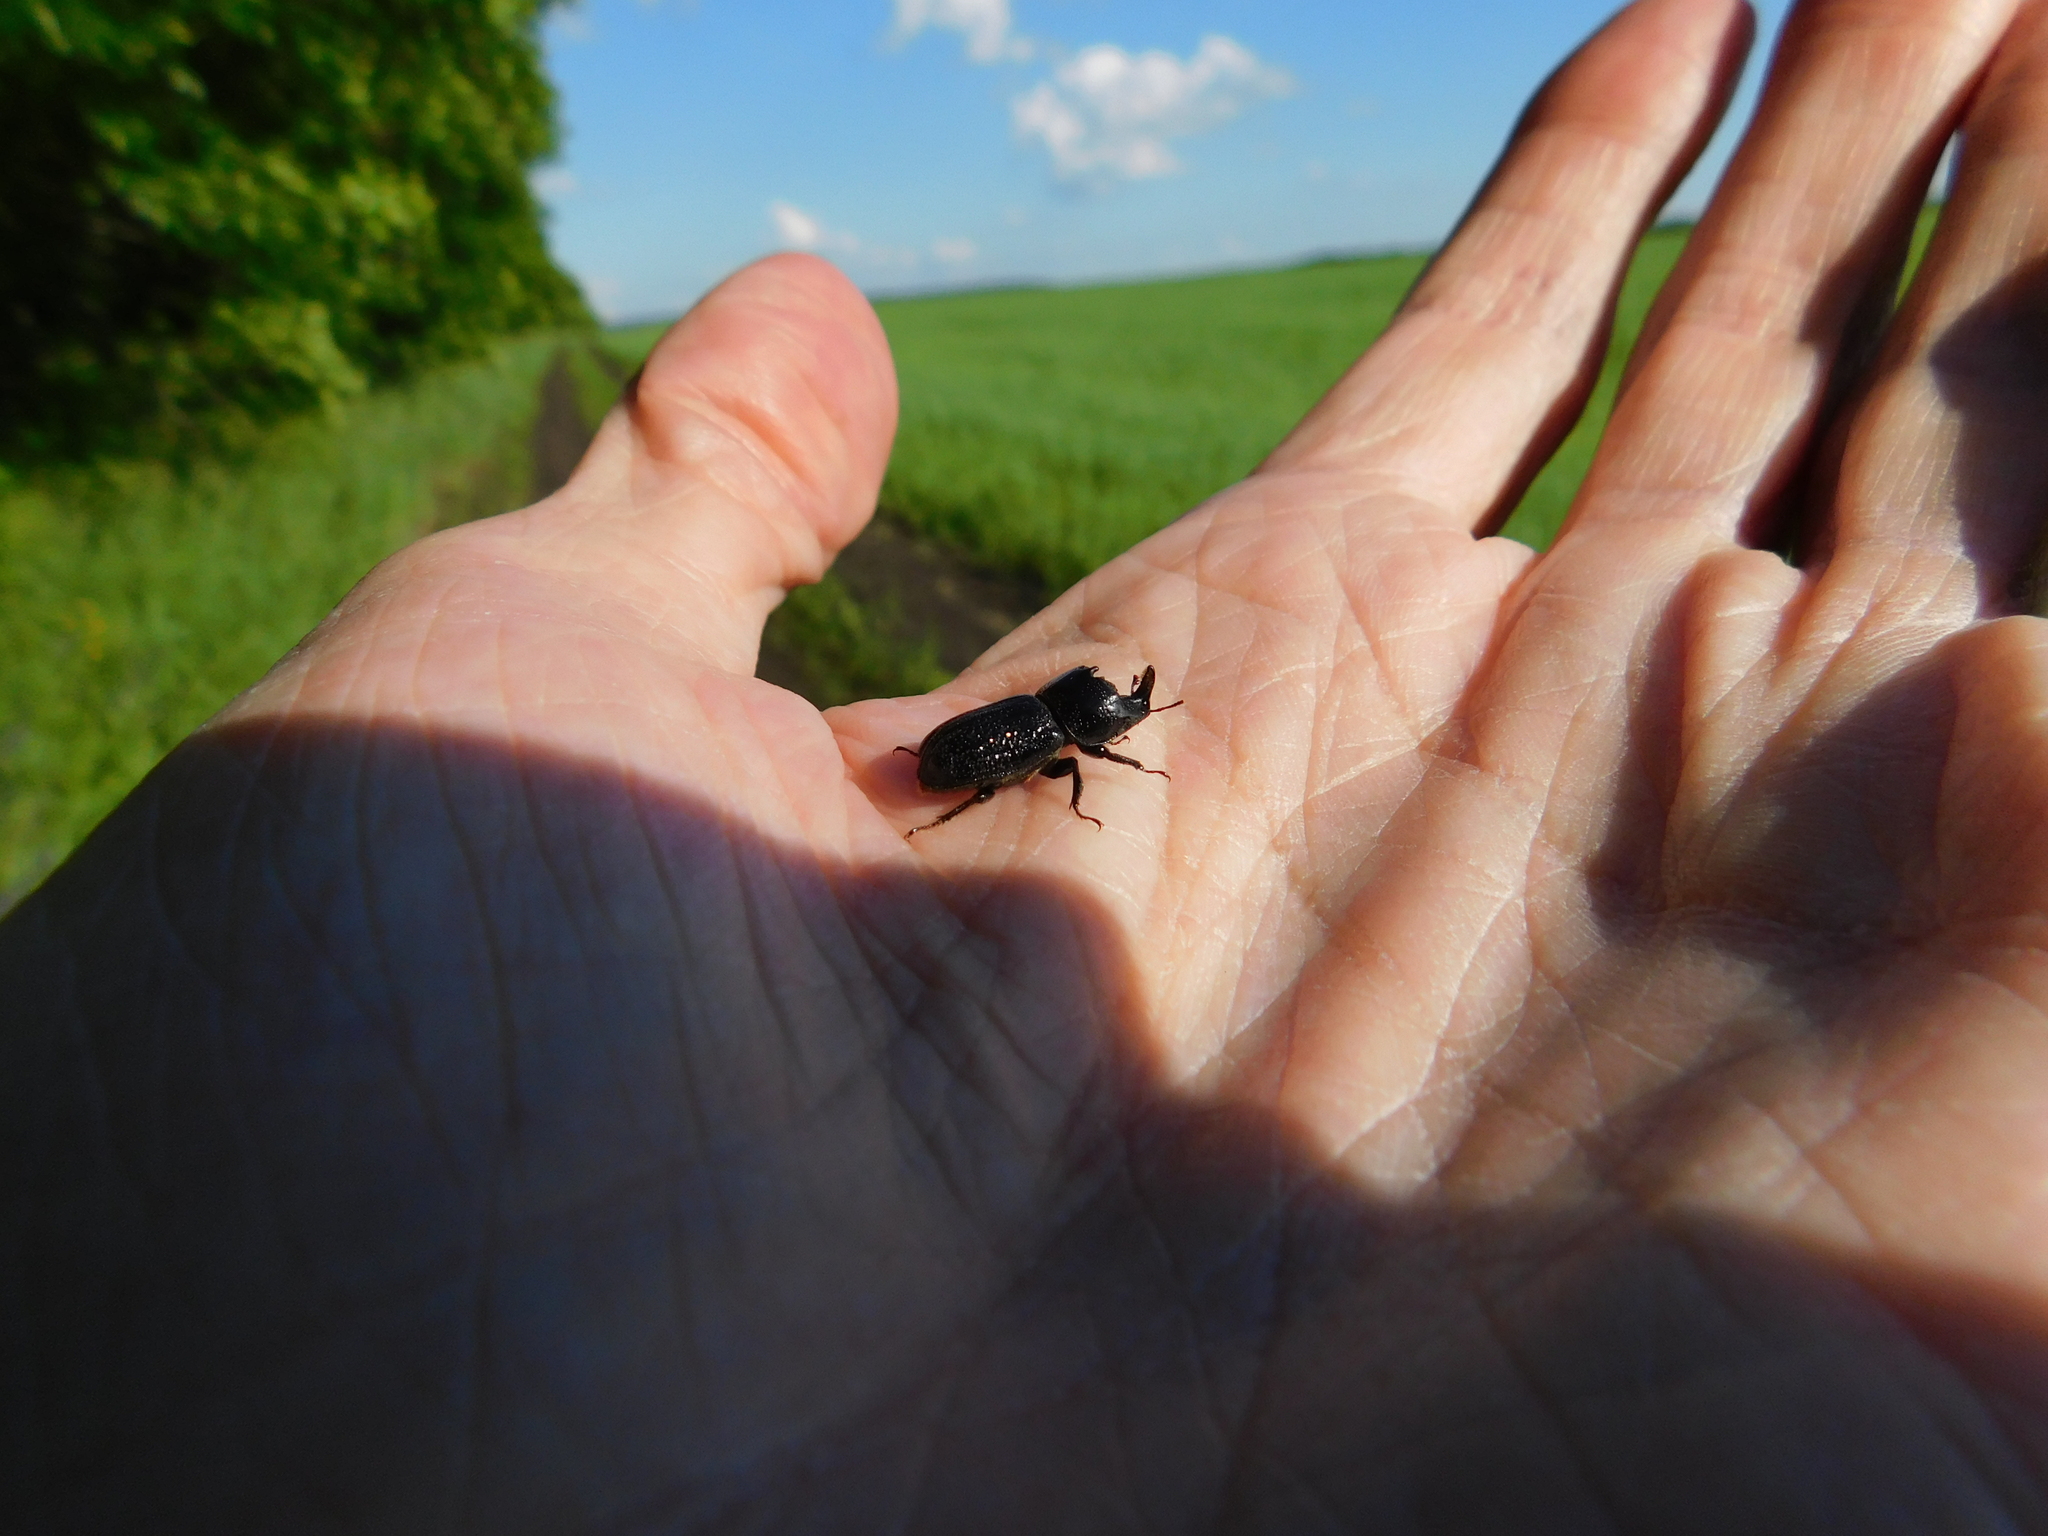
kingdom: Animalia
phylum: Arthropoda
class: Insecta
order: Coleoptera
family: Lucanidae
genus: Sinodendron
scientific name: Sinodendron cylindricum
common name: Rhinoceros beetle
